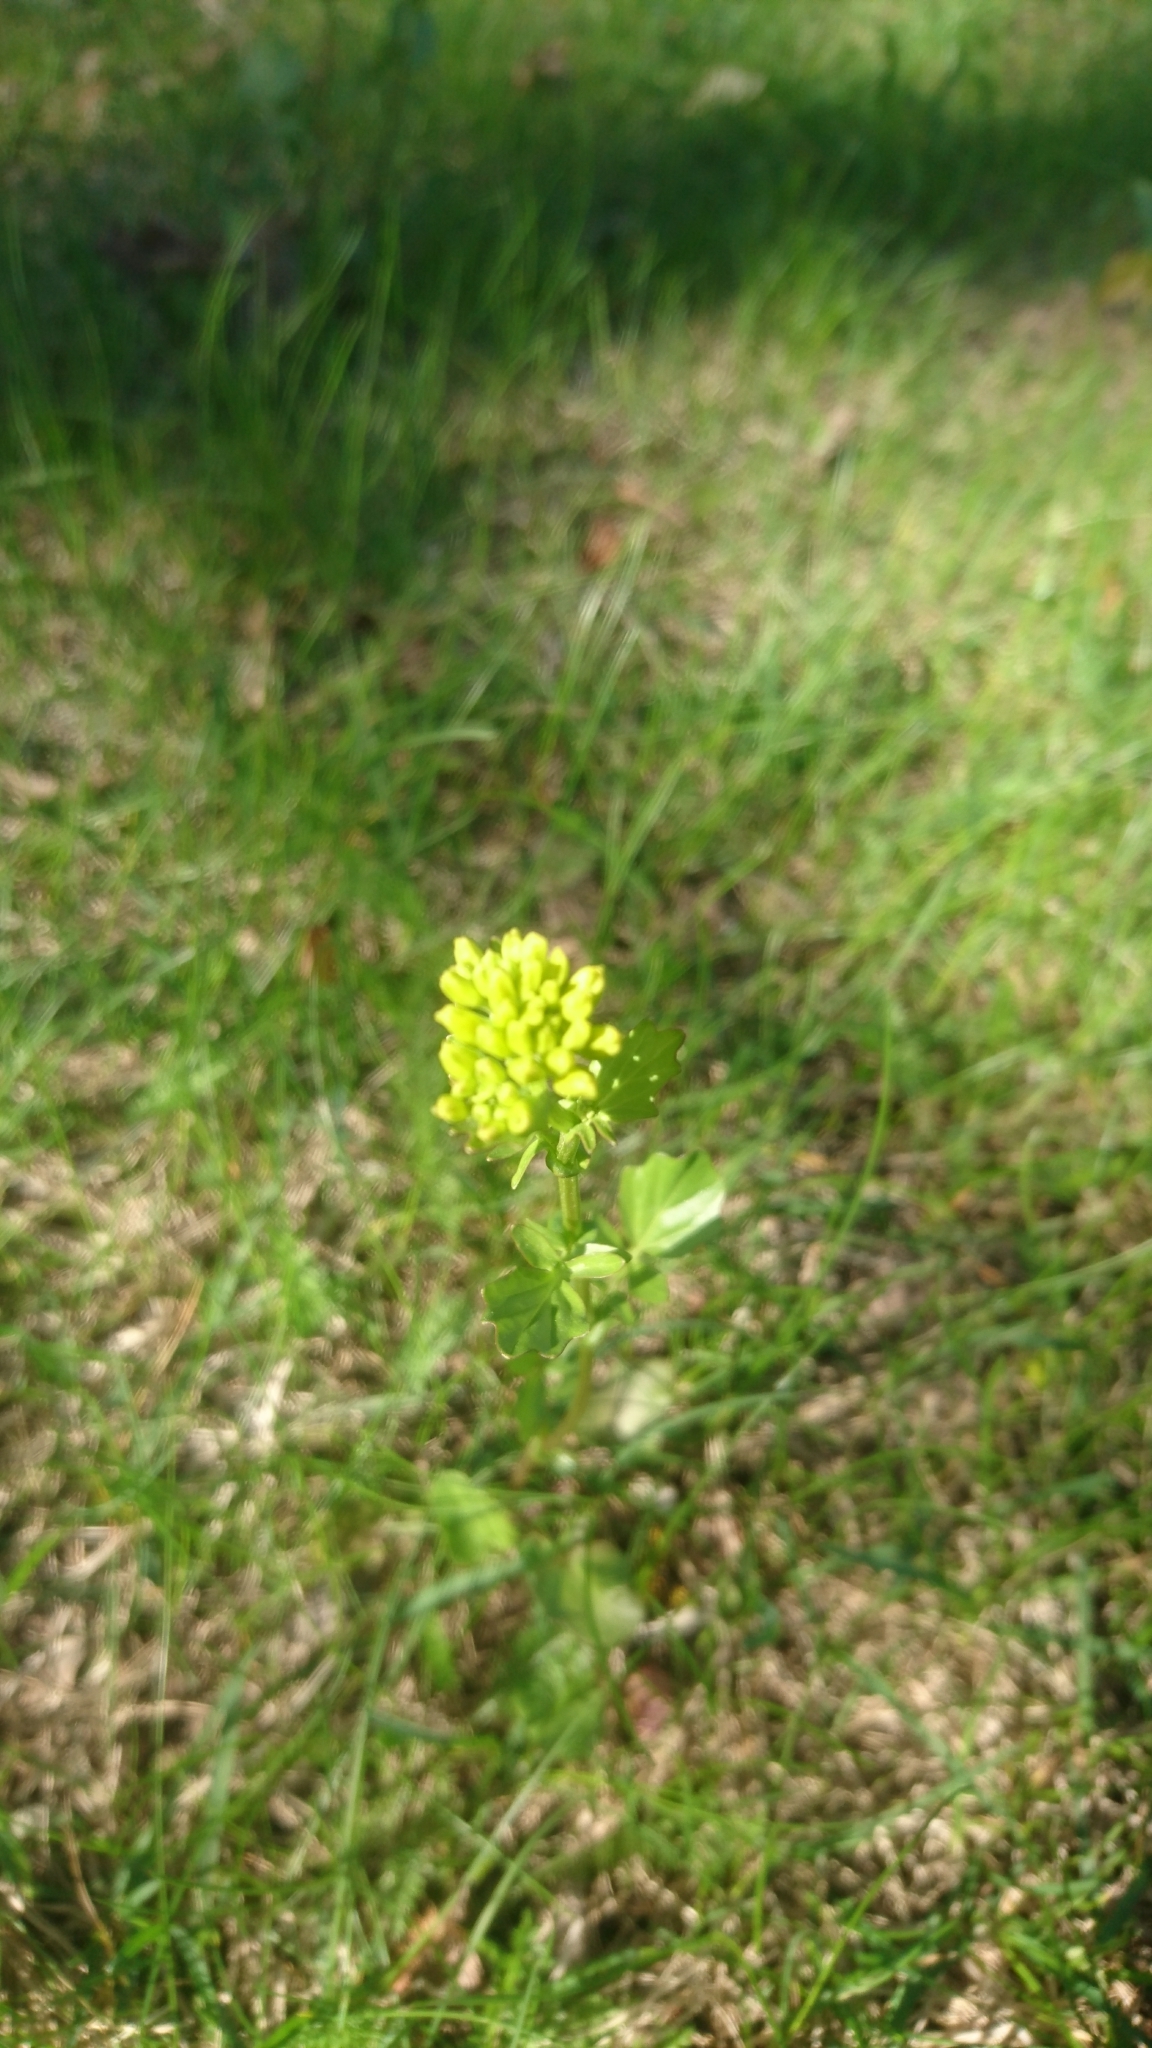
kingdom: Plantae
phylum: Tracheophyta
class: Magnoliopsida
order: Brassicales
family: Brassicaceae
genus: Barbarea
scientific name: Barbarea vulgaris
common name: Cressy-greens
